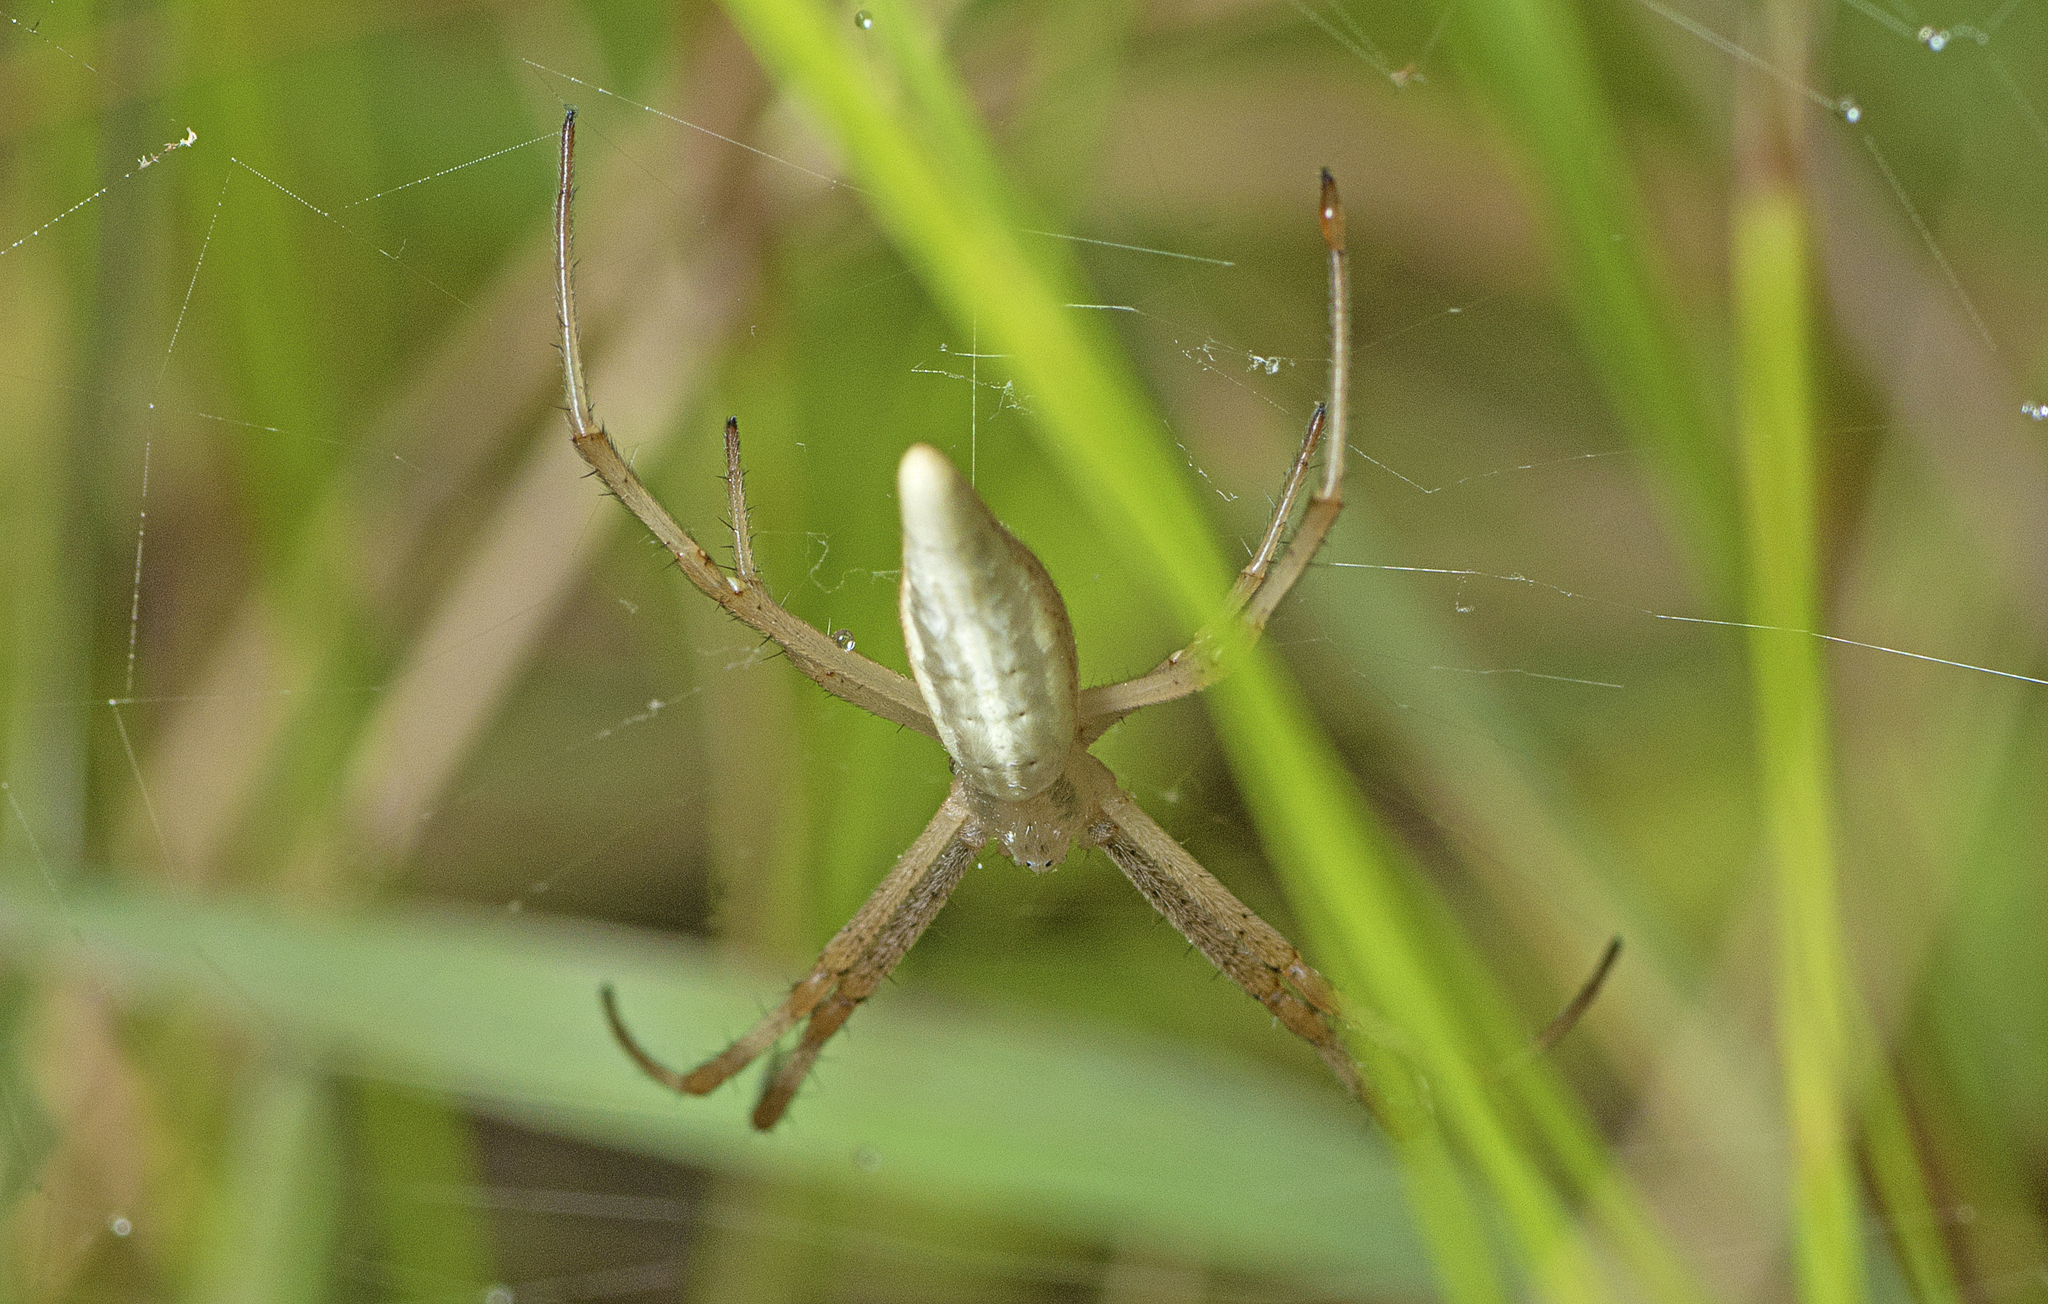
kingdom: Animalia
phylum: Arthropoda
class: Arachnida
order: Araneae
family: Araneidae
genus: Argiope
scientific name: Argiope protensa
